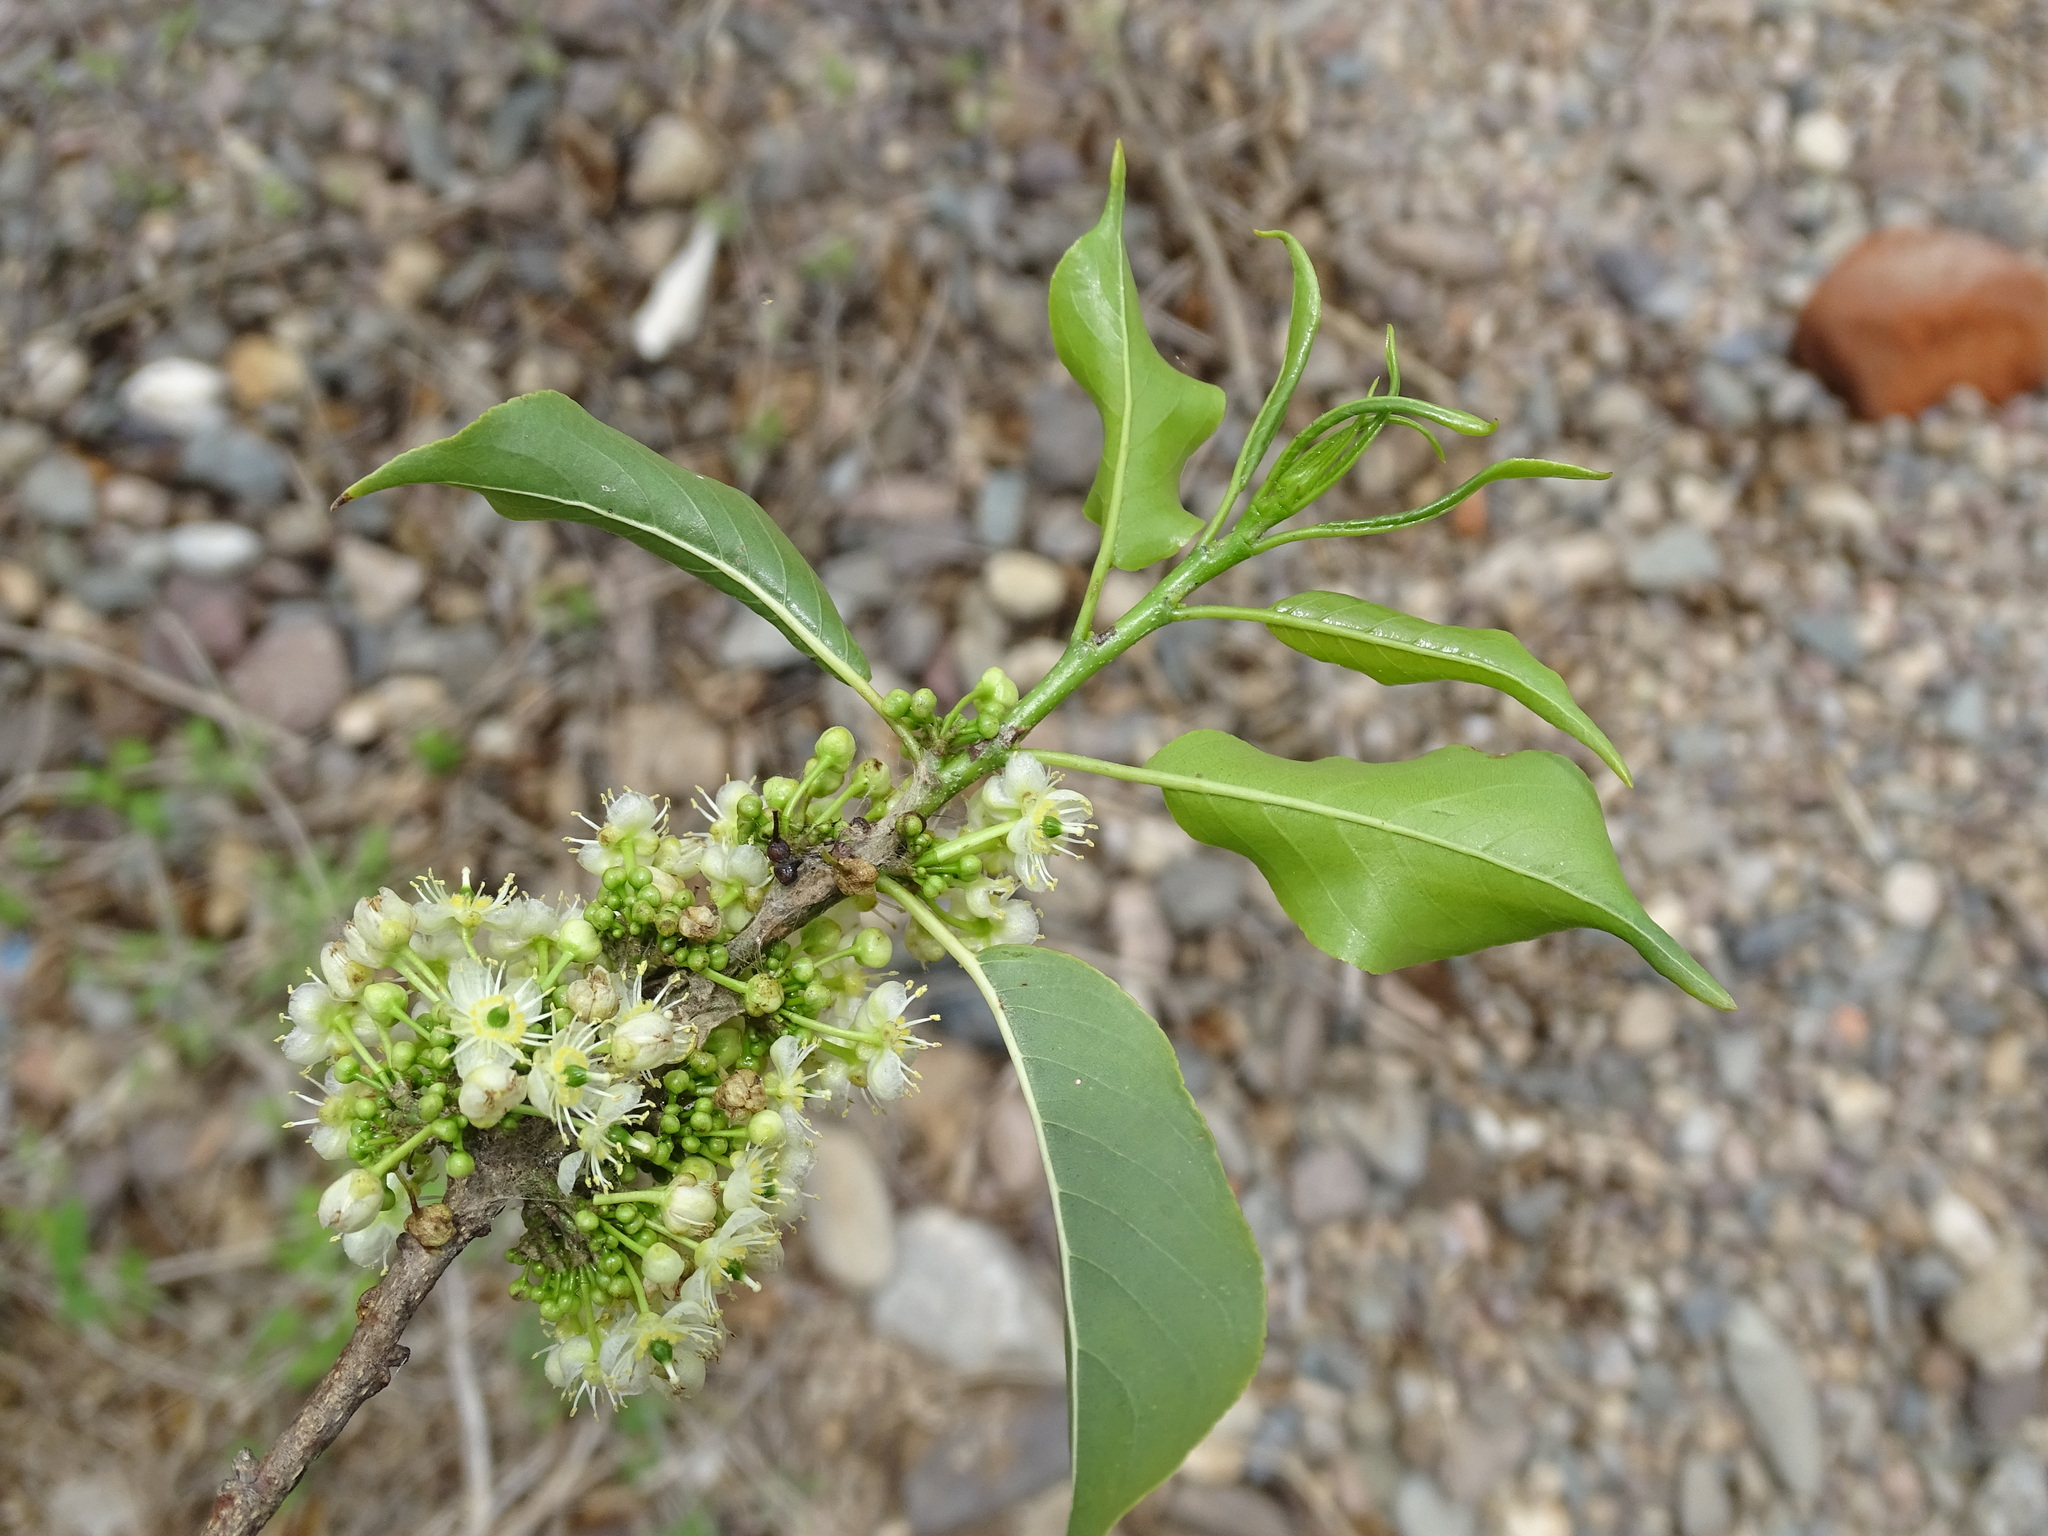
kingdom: Plantae
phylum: Tracheophyta
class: Magnoliopsida
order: Malpighiales
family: Salicaceae
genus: Casearia
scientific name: Casearia tremula
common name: Jumbie guava
